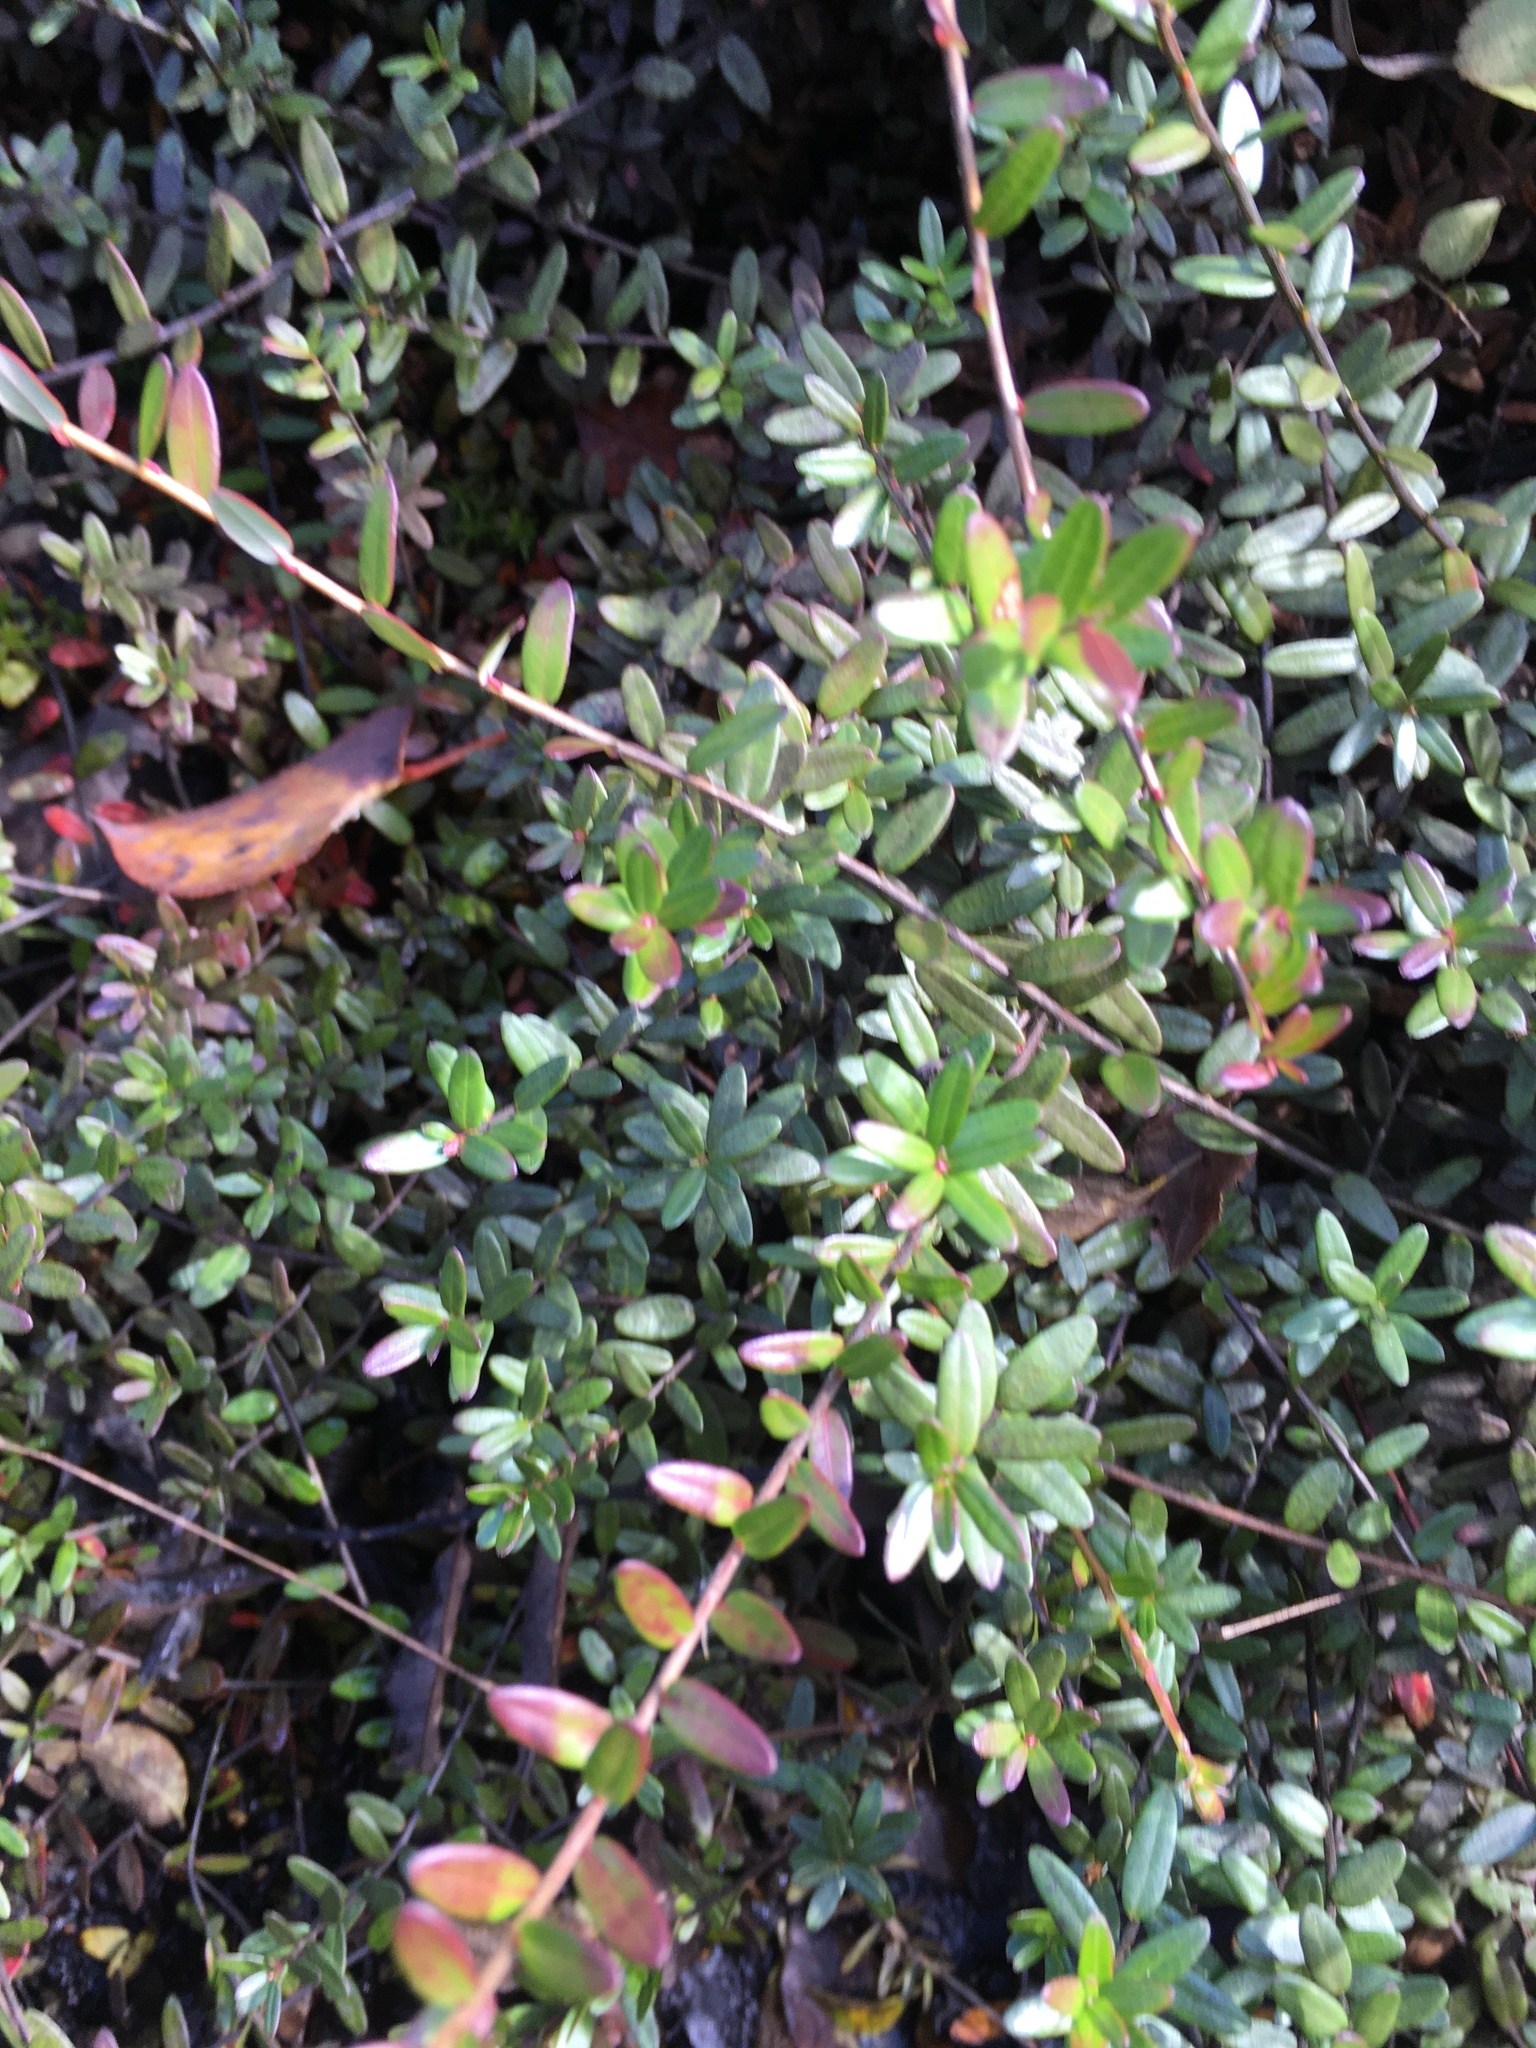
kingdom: Plantae
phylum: Tracheophyta
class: Magnoliopsida
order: Ericales
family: Ericaceae
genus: Vaccinium
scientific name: Vaccinium macrocarpon
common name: American cranberry
